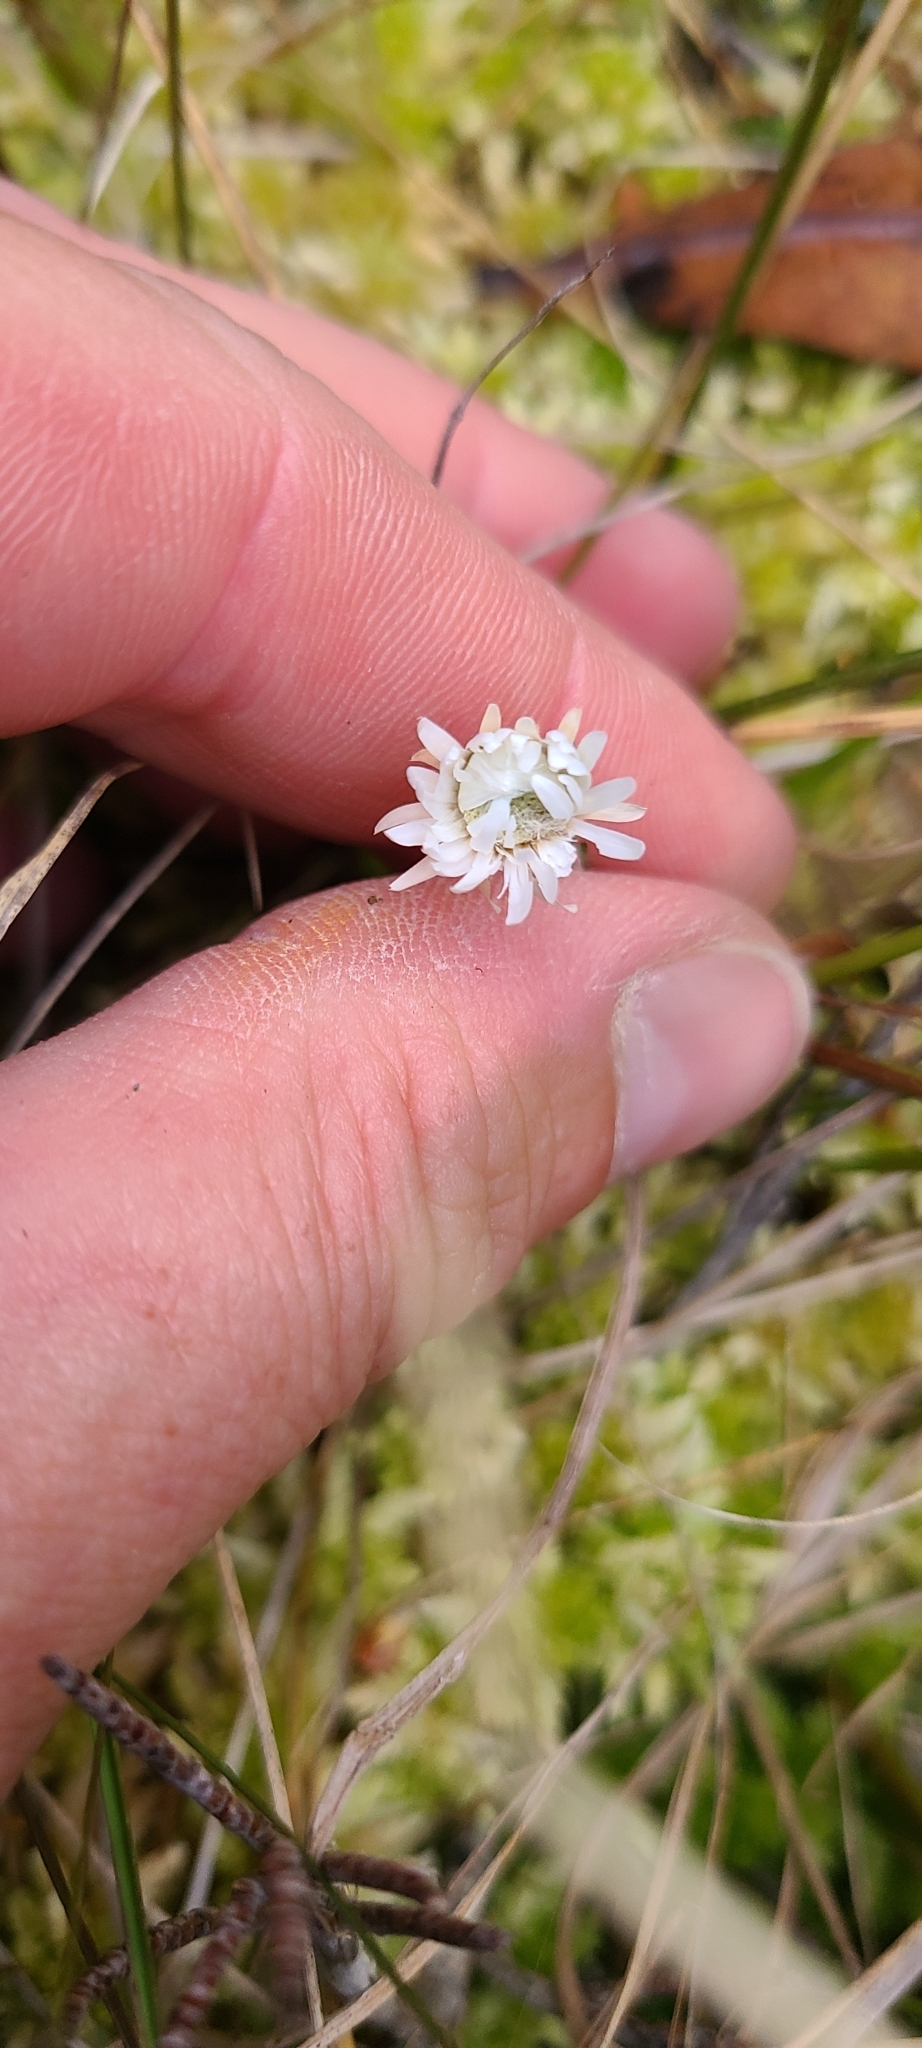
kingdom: Plantae
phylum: Tracheophyta
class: Magnoliopsida
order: Asterales
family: Asteraceae
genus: Anaphalioides
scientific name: Anaphalioides bellidioides
